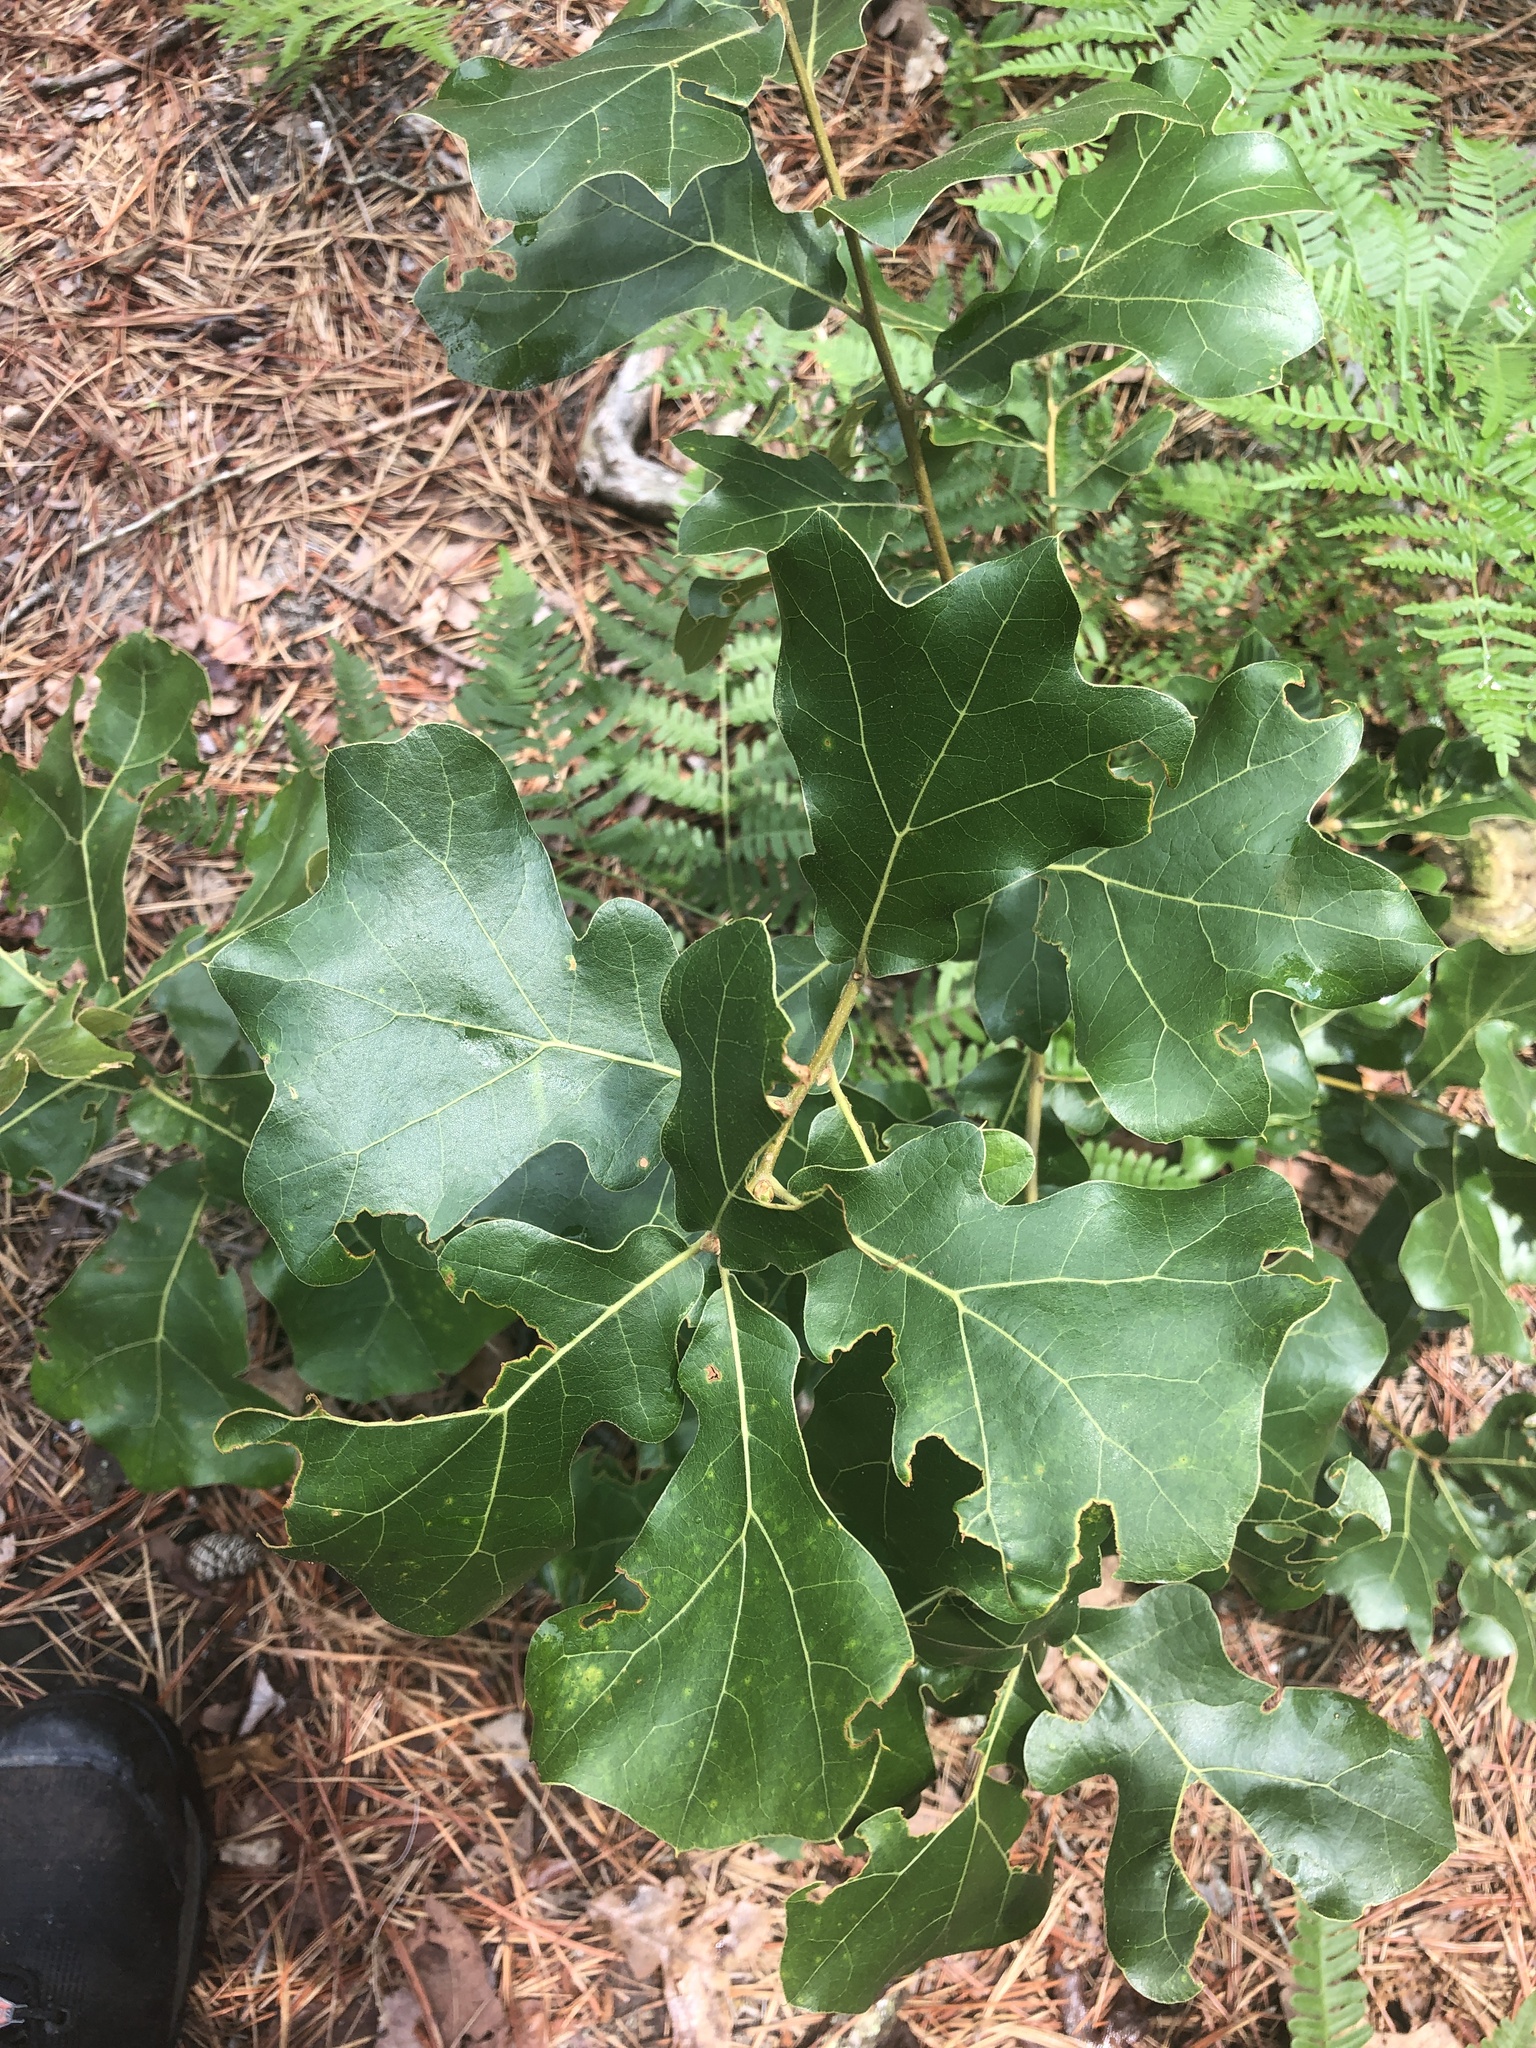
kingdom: Plantae
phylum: Tracheophyta
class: Magnoliopsida
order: Fagales
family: Fagaceae
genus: Quercus
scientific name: Quercus marilandica
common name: Blackjack oak
